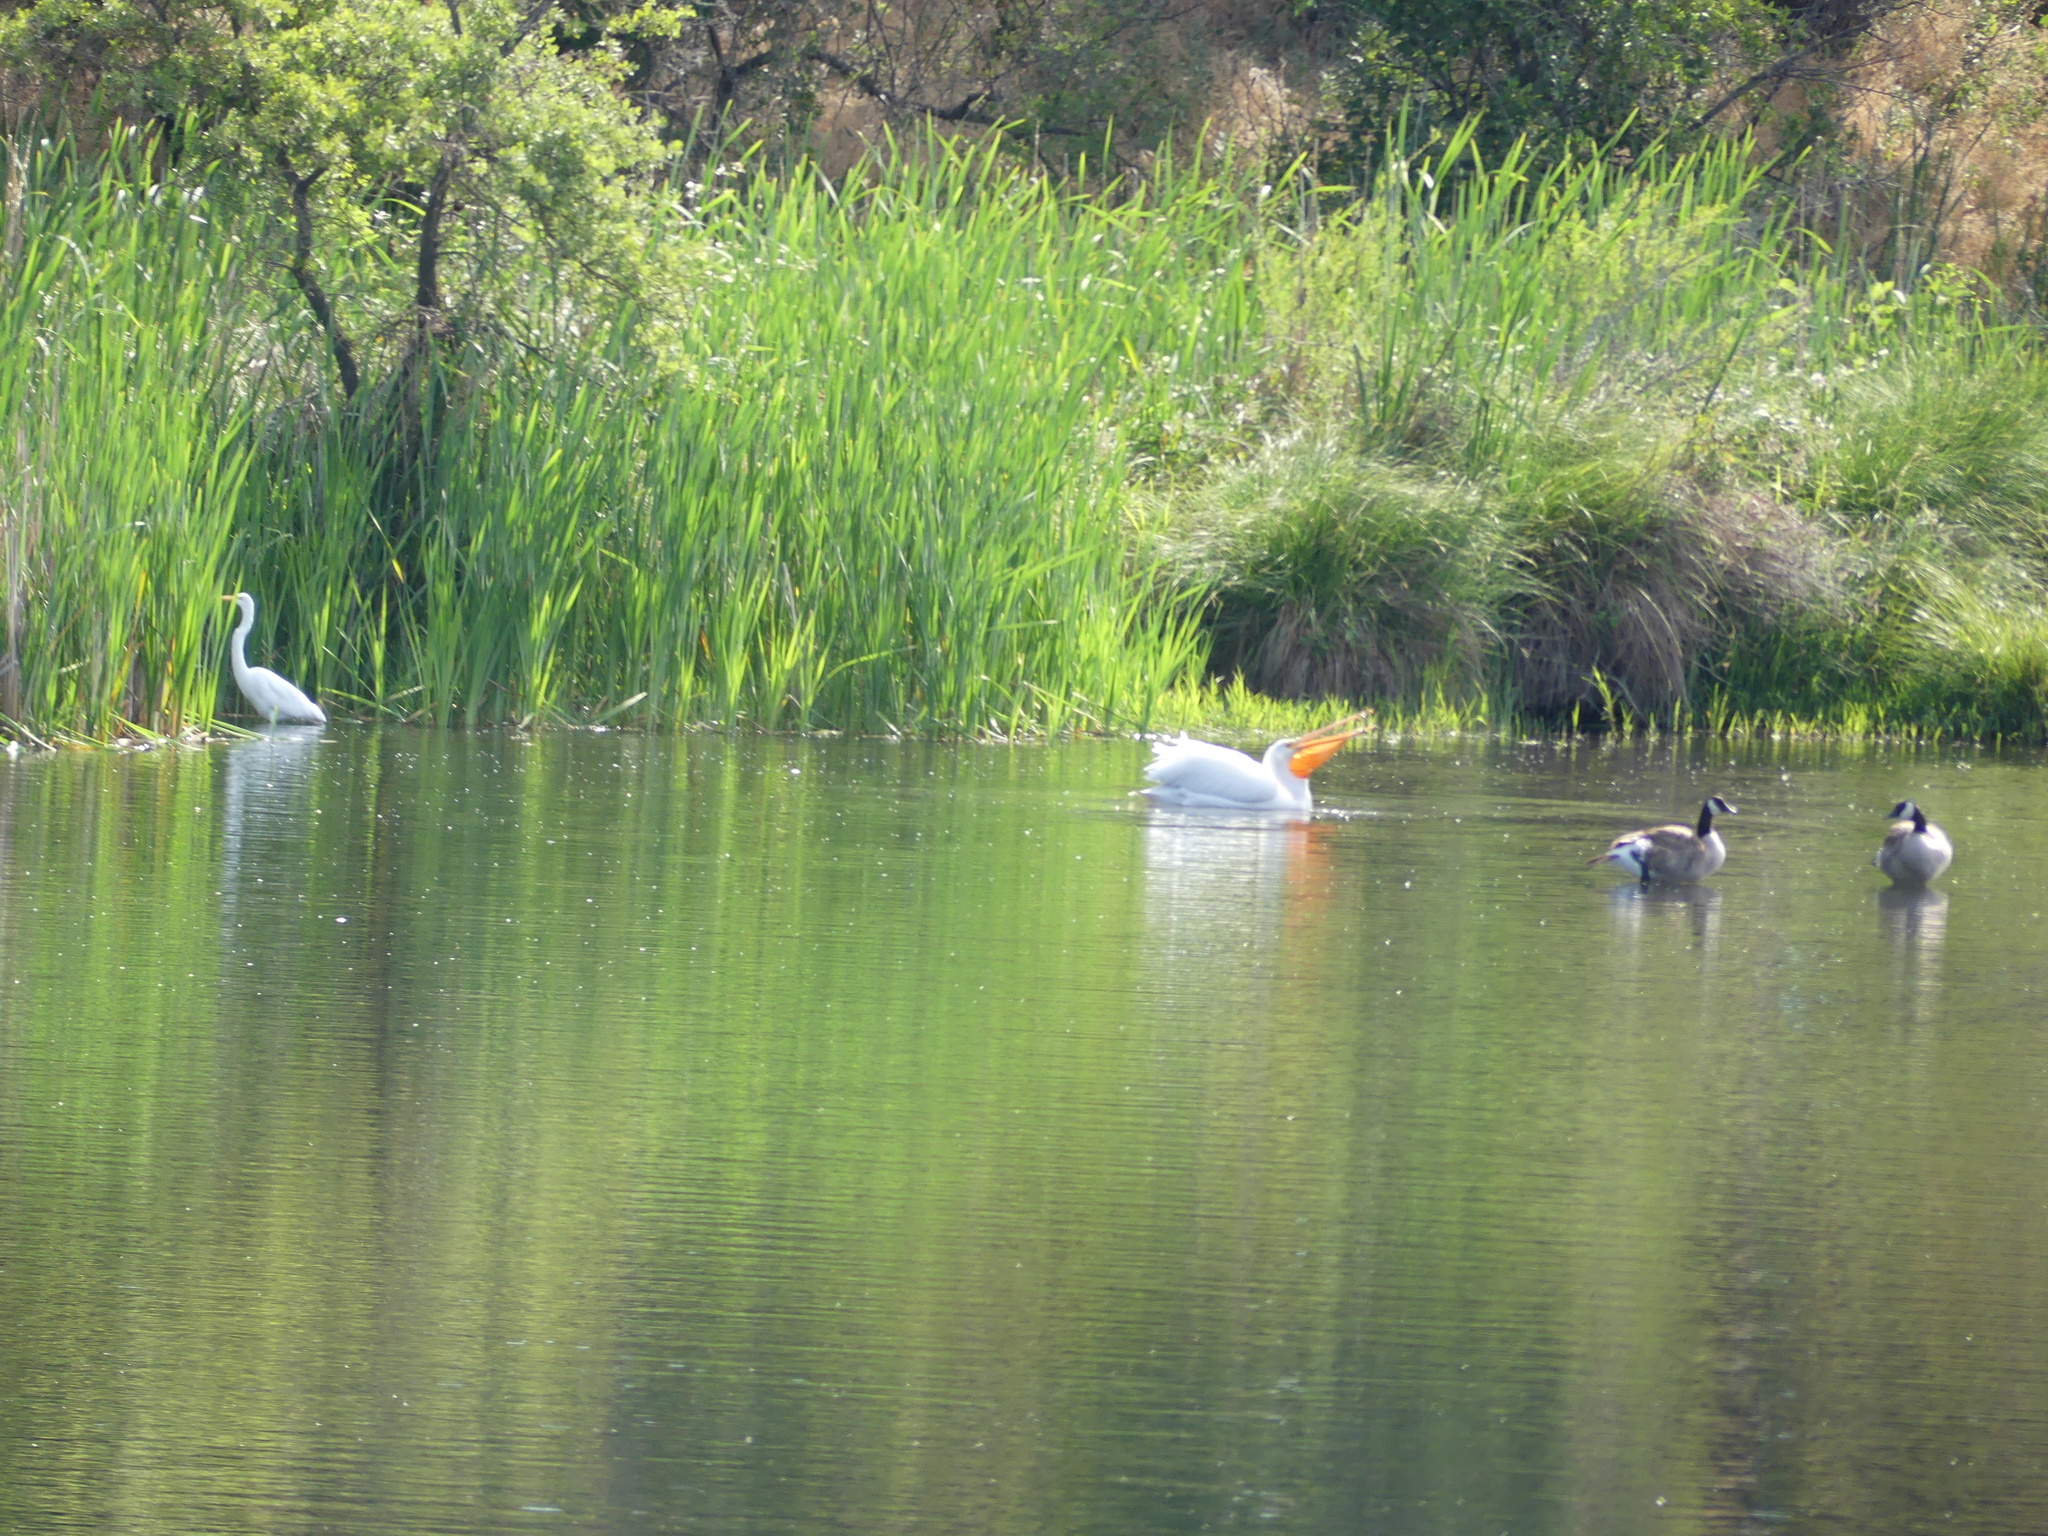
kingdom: Animalia
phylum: Chordata
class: Aves
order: Pelecaniformes
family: Pelecanidae
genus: Pelecanus
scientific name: Pelecanus erythrorhynchos
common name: American white pelican
